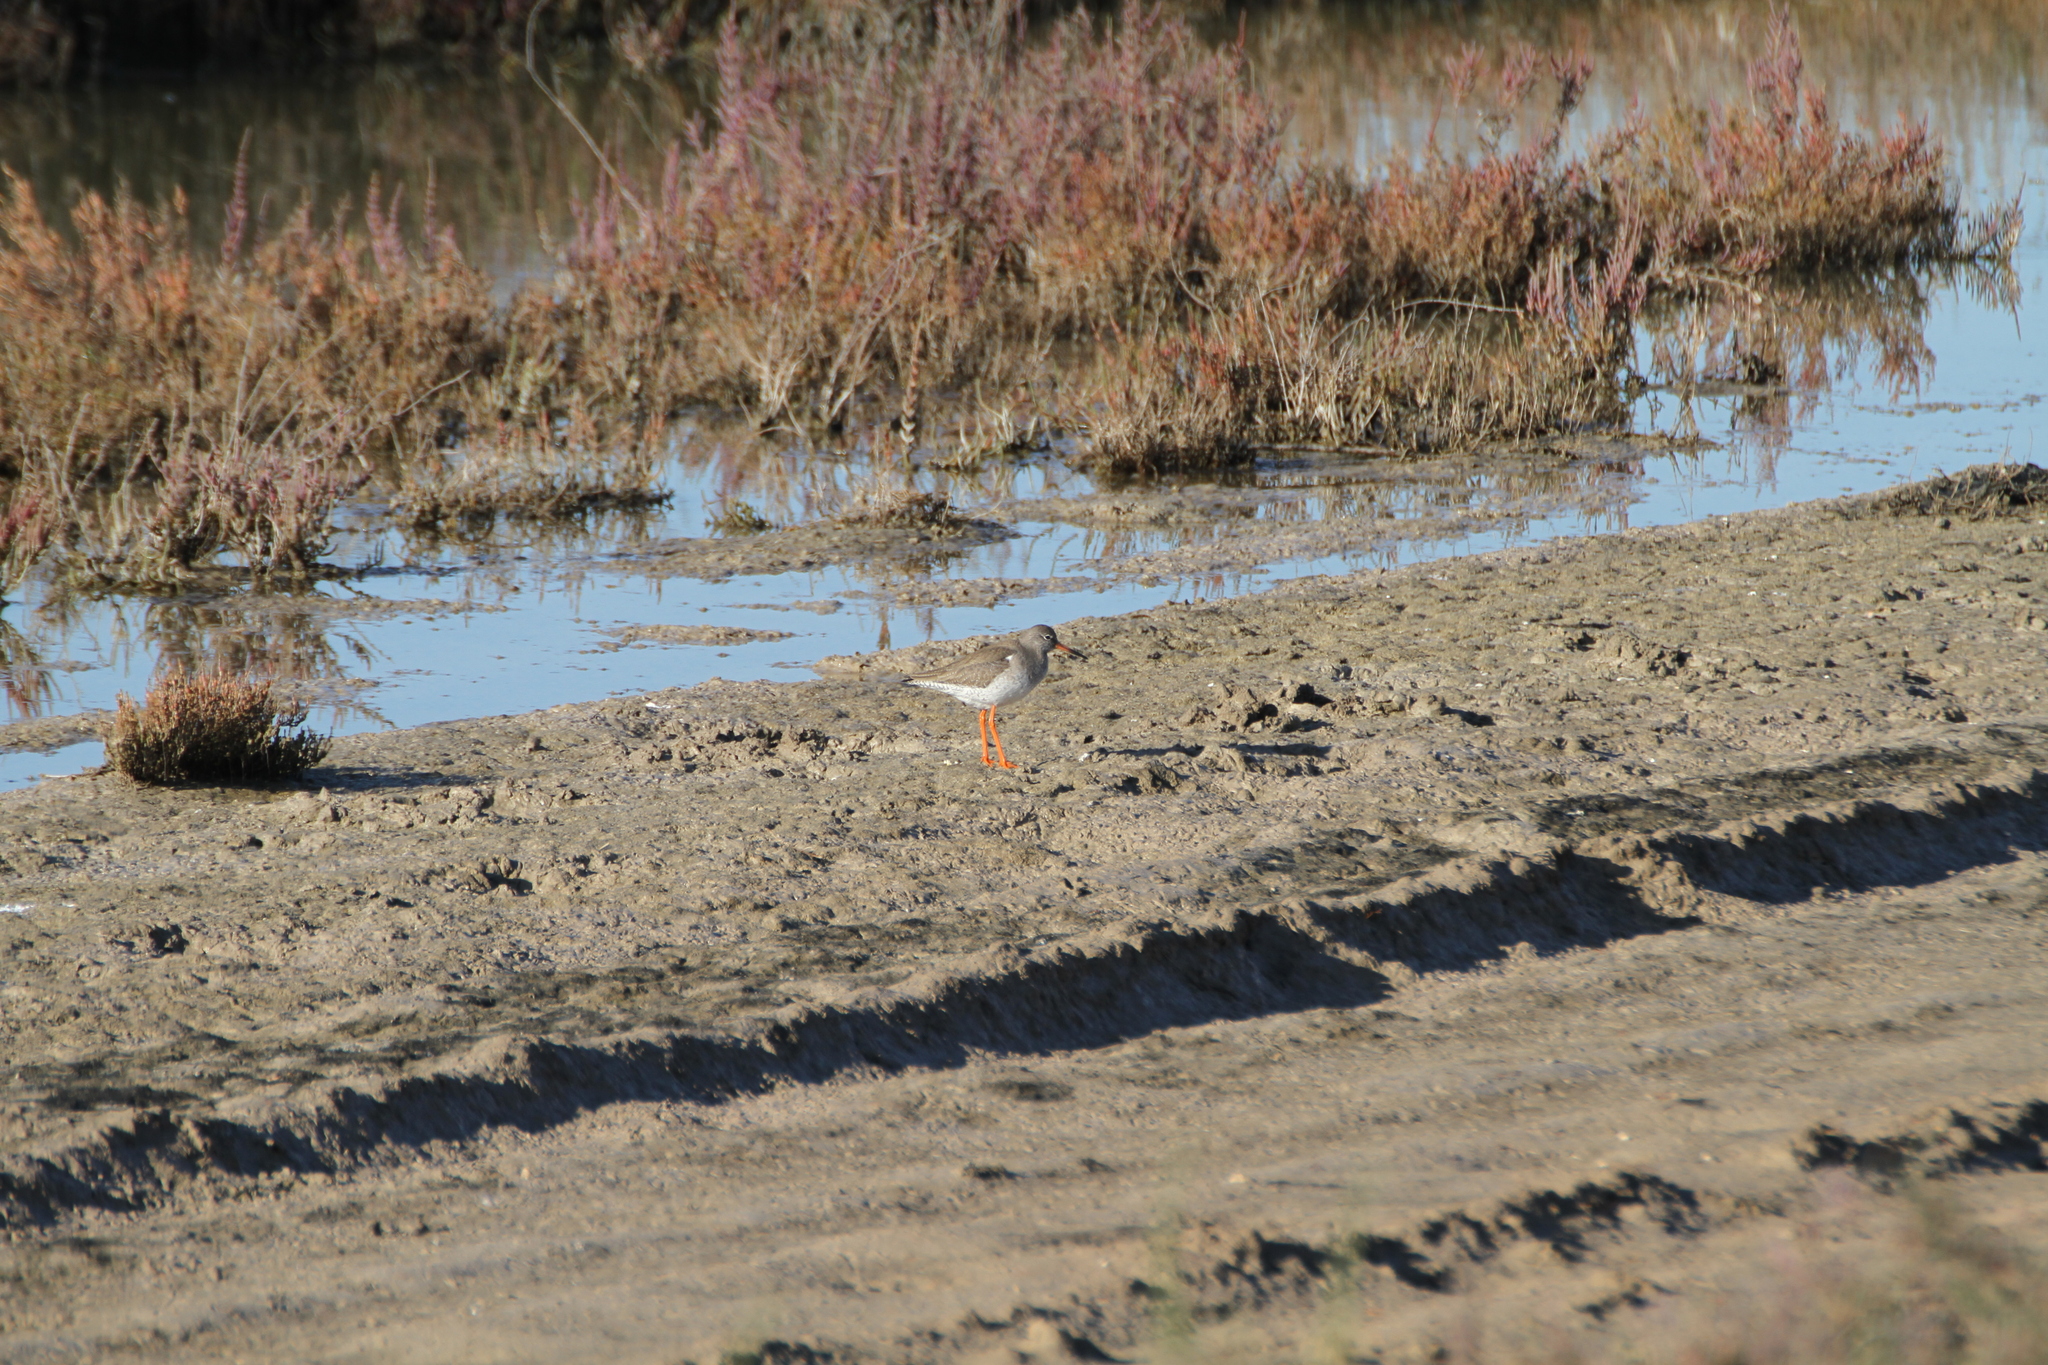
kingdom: Animalia
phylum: Chordata
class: Aves
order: Charadriiformes
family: Scolopacidae
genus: Tringa
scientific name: Tringa totanus
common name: Common redshank
